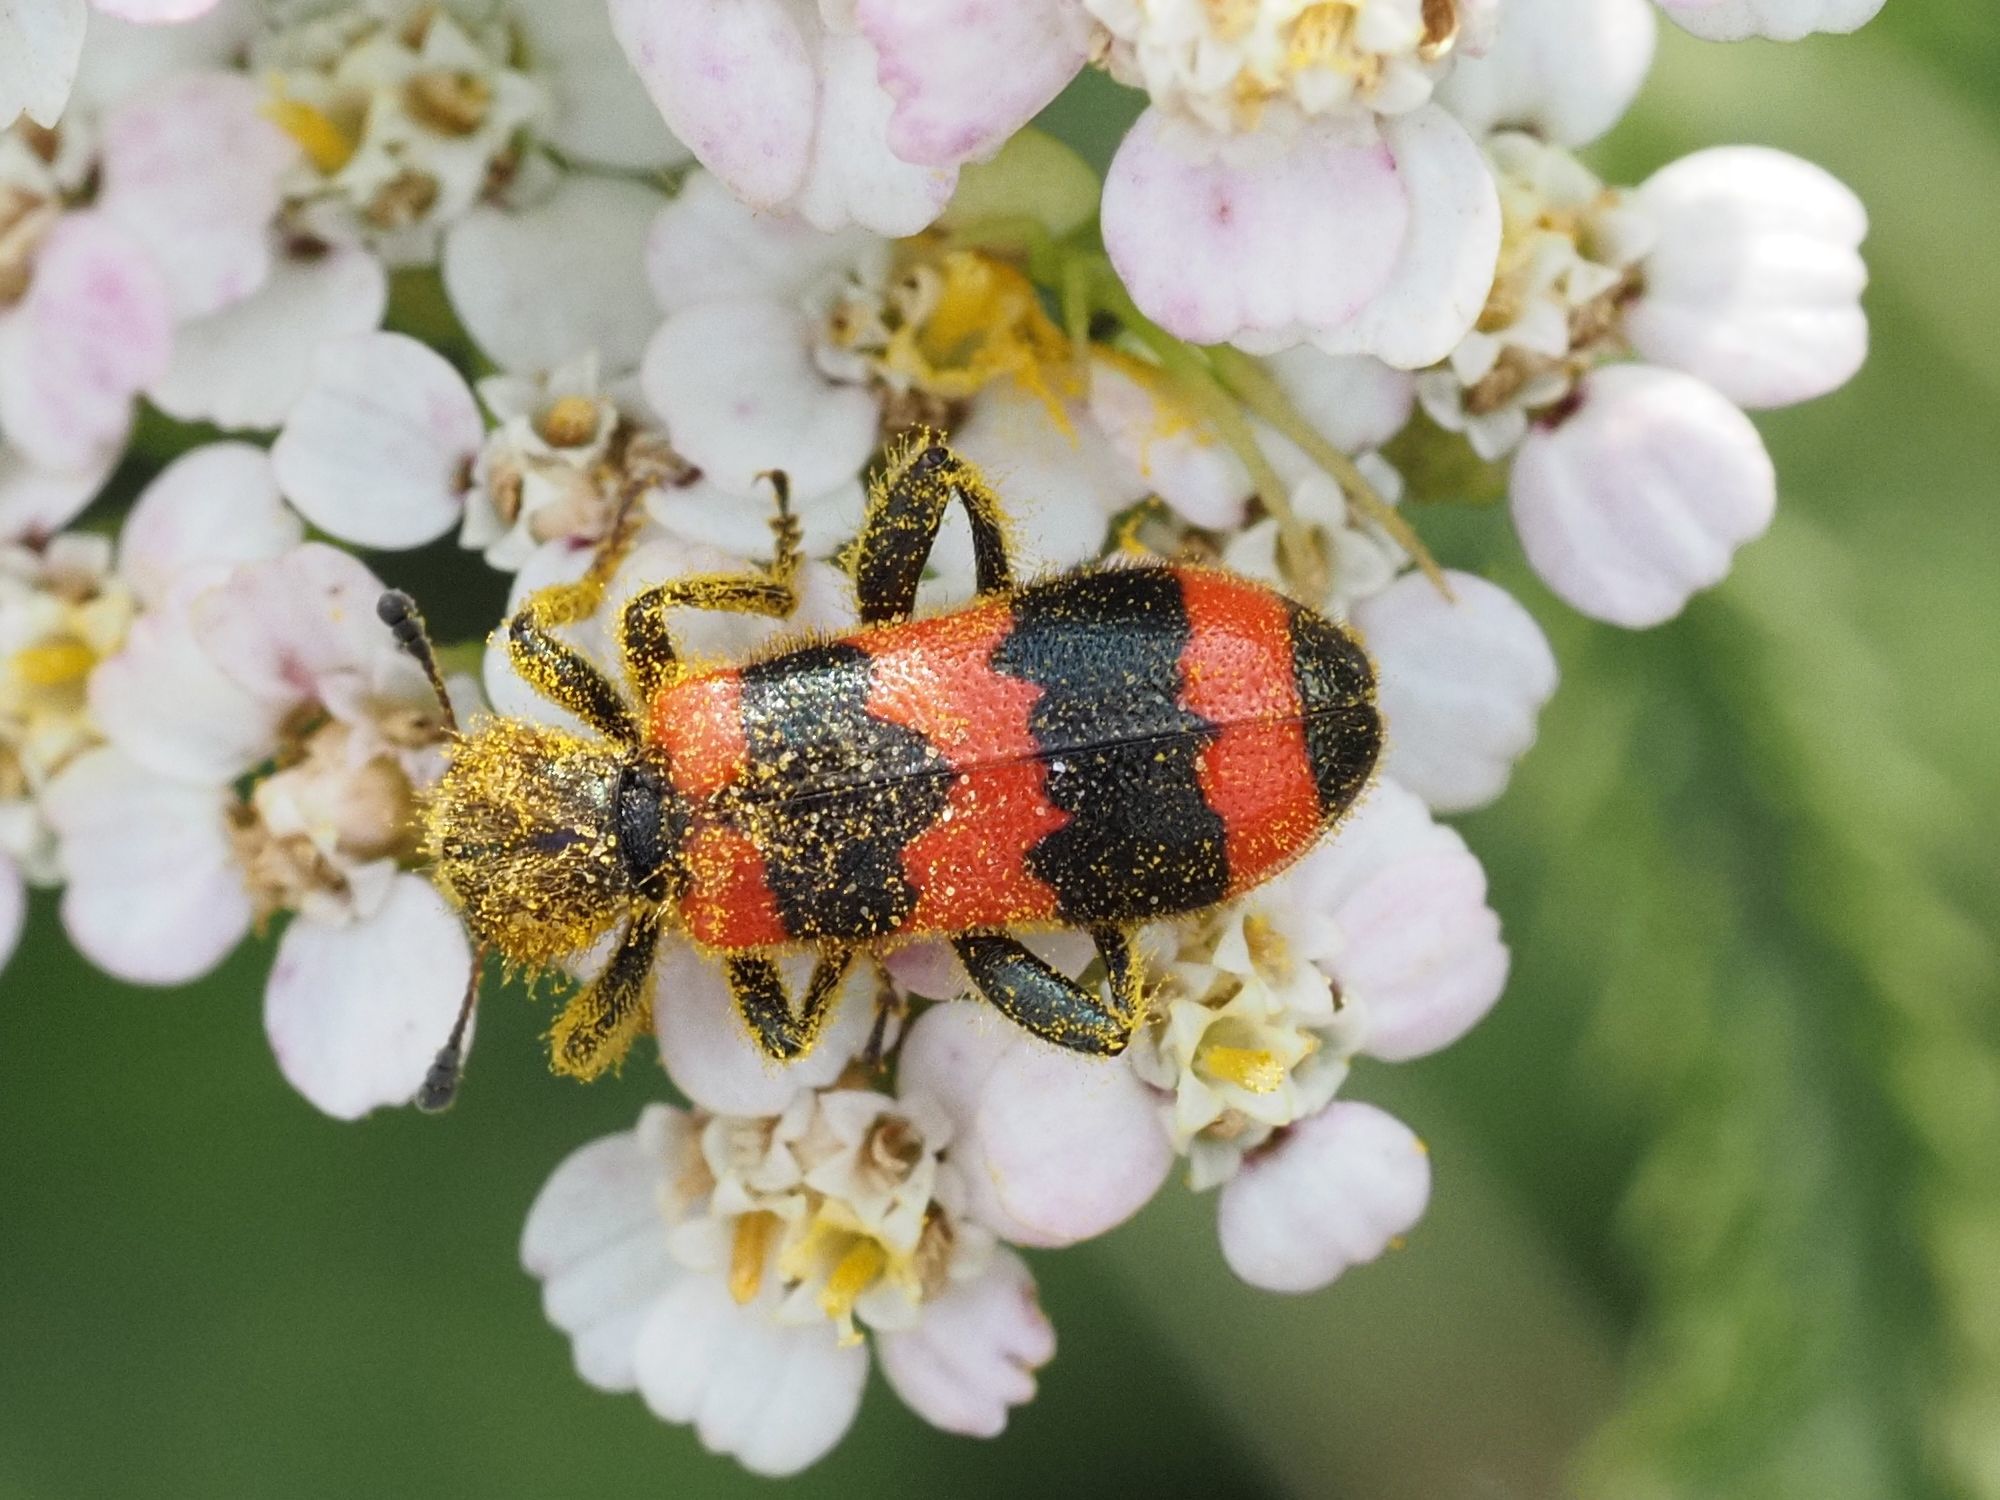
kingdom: Animalia
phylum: Arthropoda
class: Insecta
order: Coleoptera
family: Cleridae
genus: Trichodes
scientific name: Trichodes apiarius
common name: Bee-eating beetle
